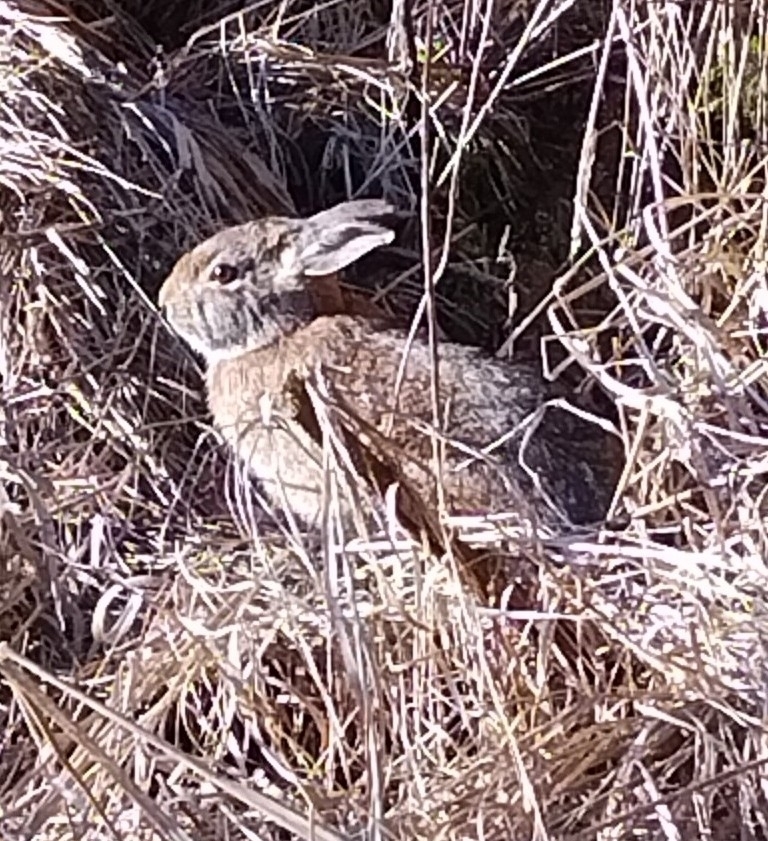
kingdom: Animalia
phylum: Chordata
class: Mammalia
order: Lagomorpha
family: Leporidae
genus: Sylvilagus
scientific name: Sylvilagus floridanus
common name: Eastern cottontail
